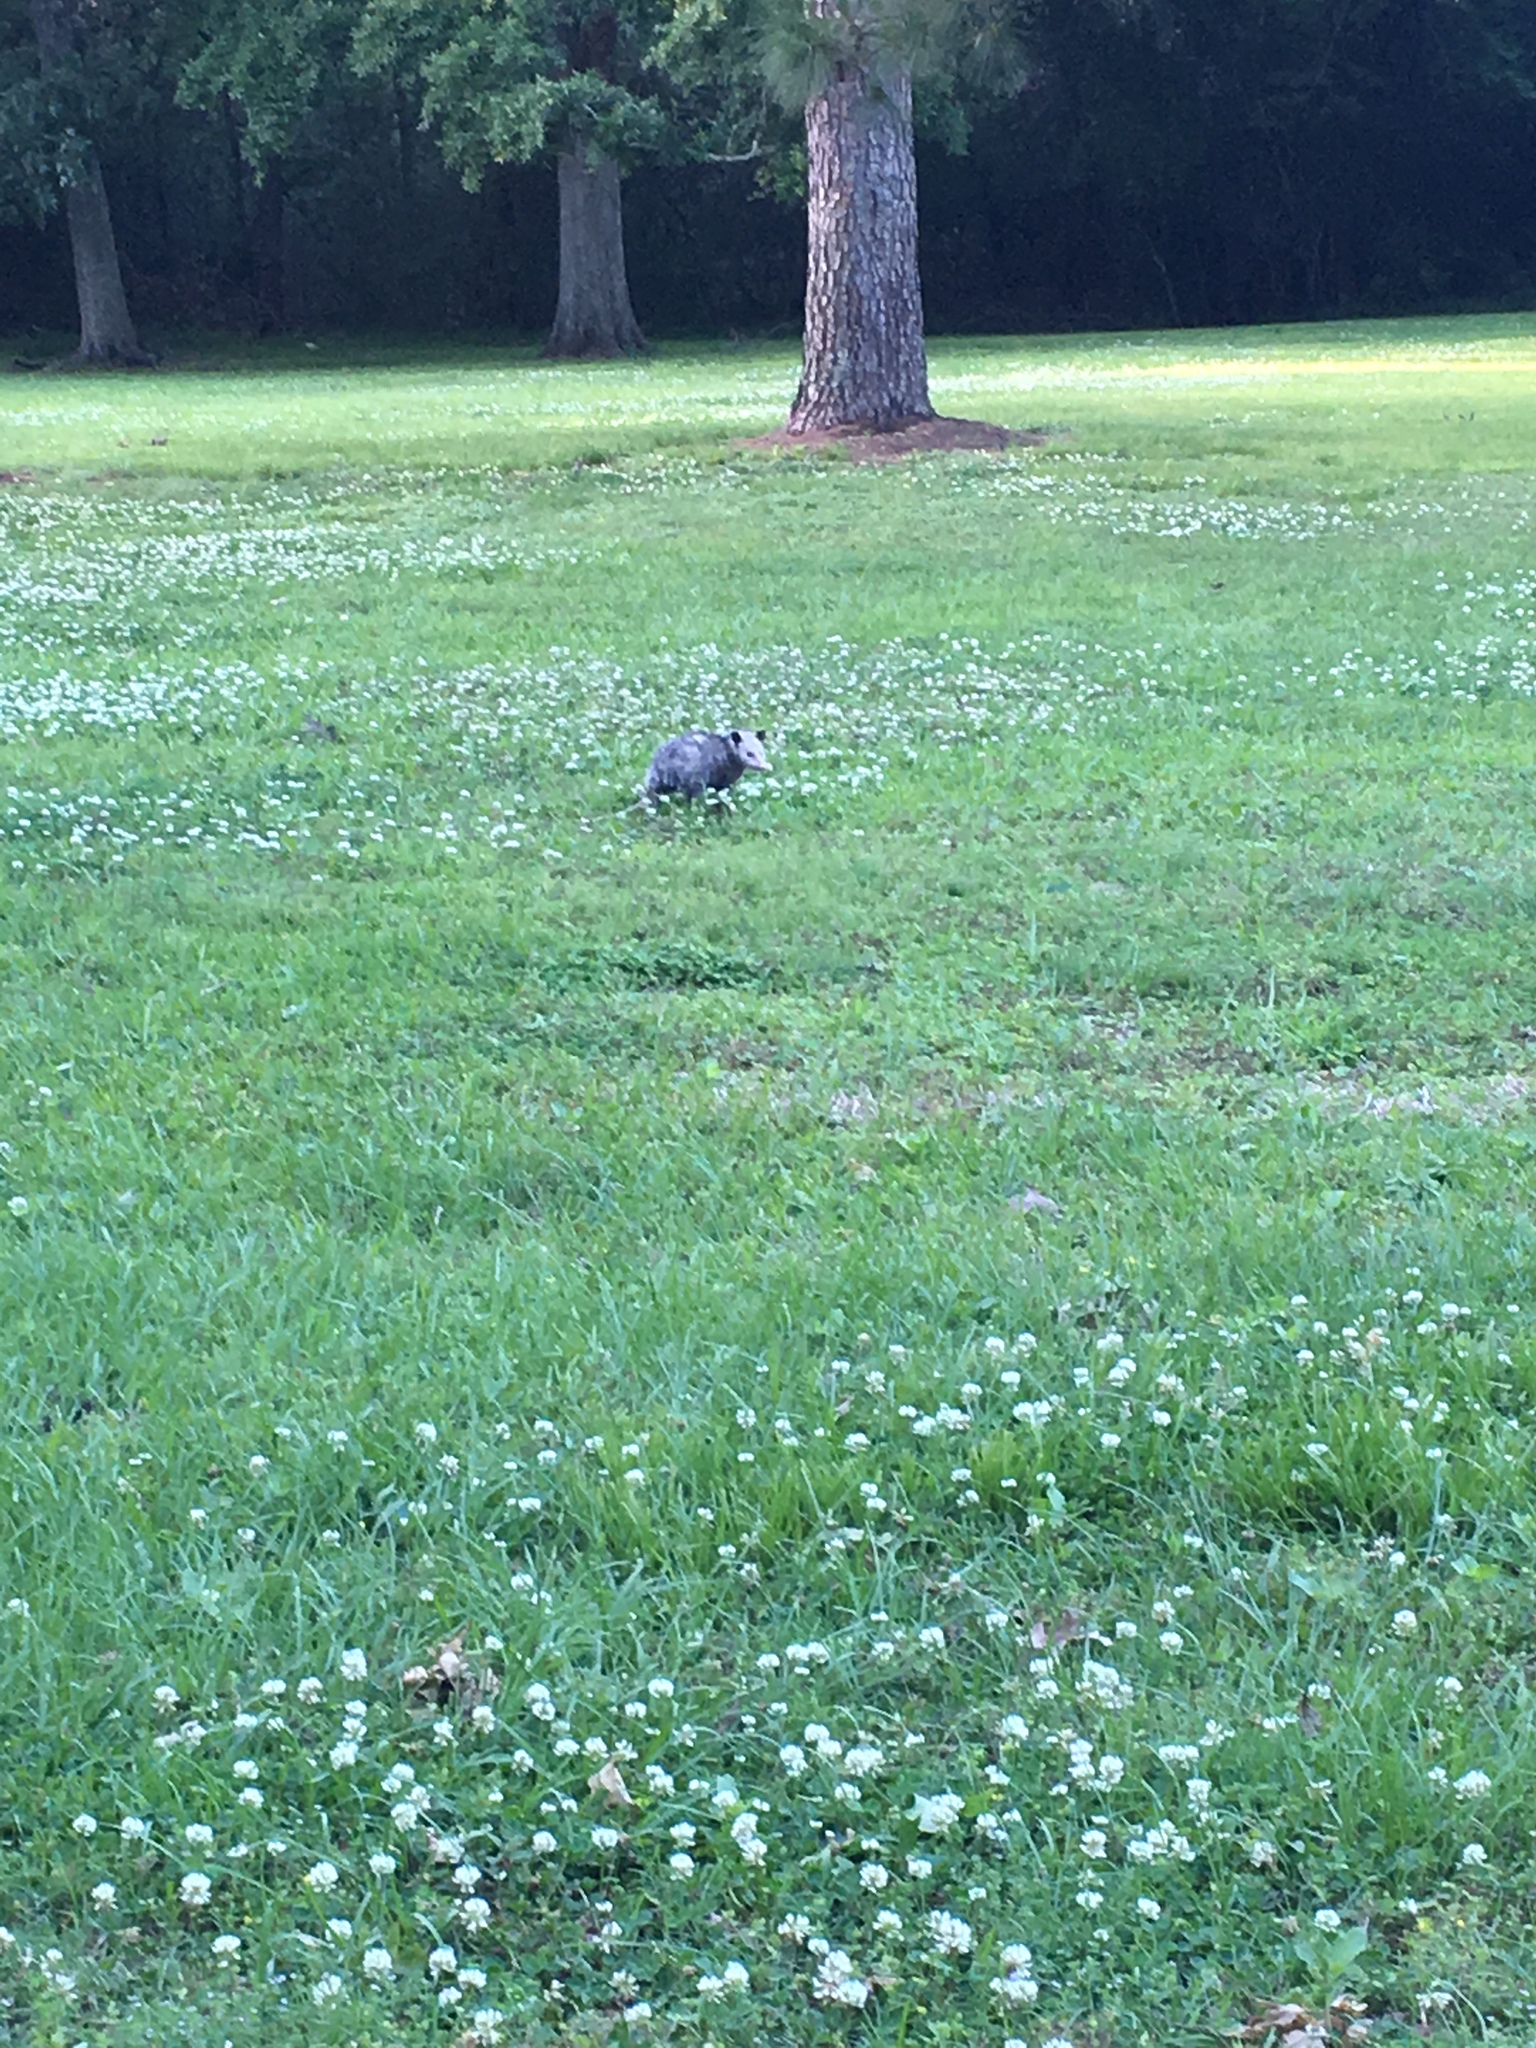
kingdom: Animalia
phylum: Chordata
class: Mammalia
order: Didelphimorphia
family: Didelphidae
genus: Didelphis
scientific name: Didelphis virginiana
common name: Virginia opossum
